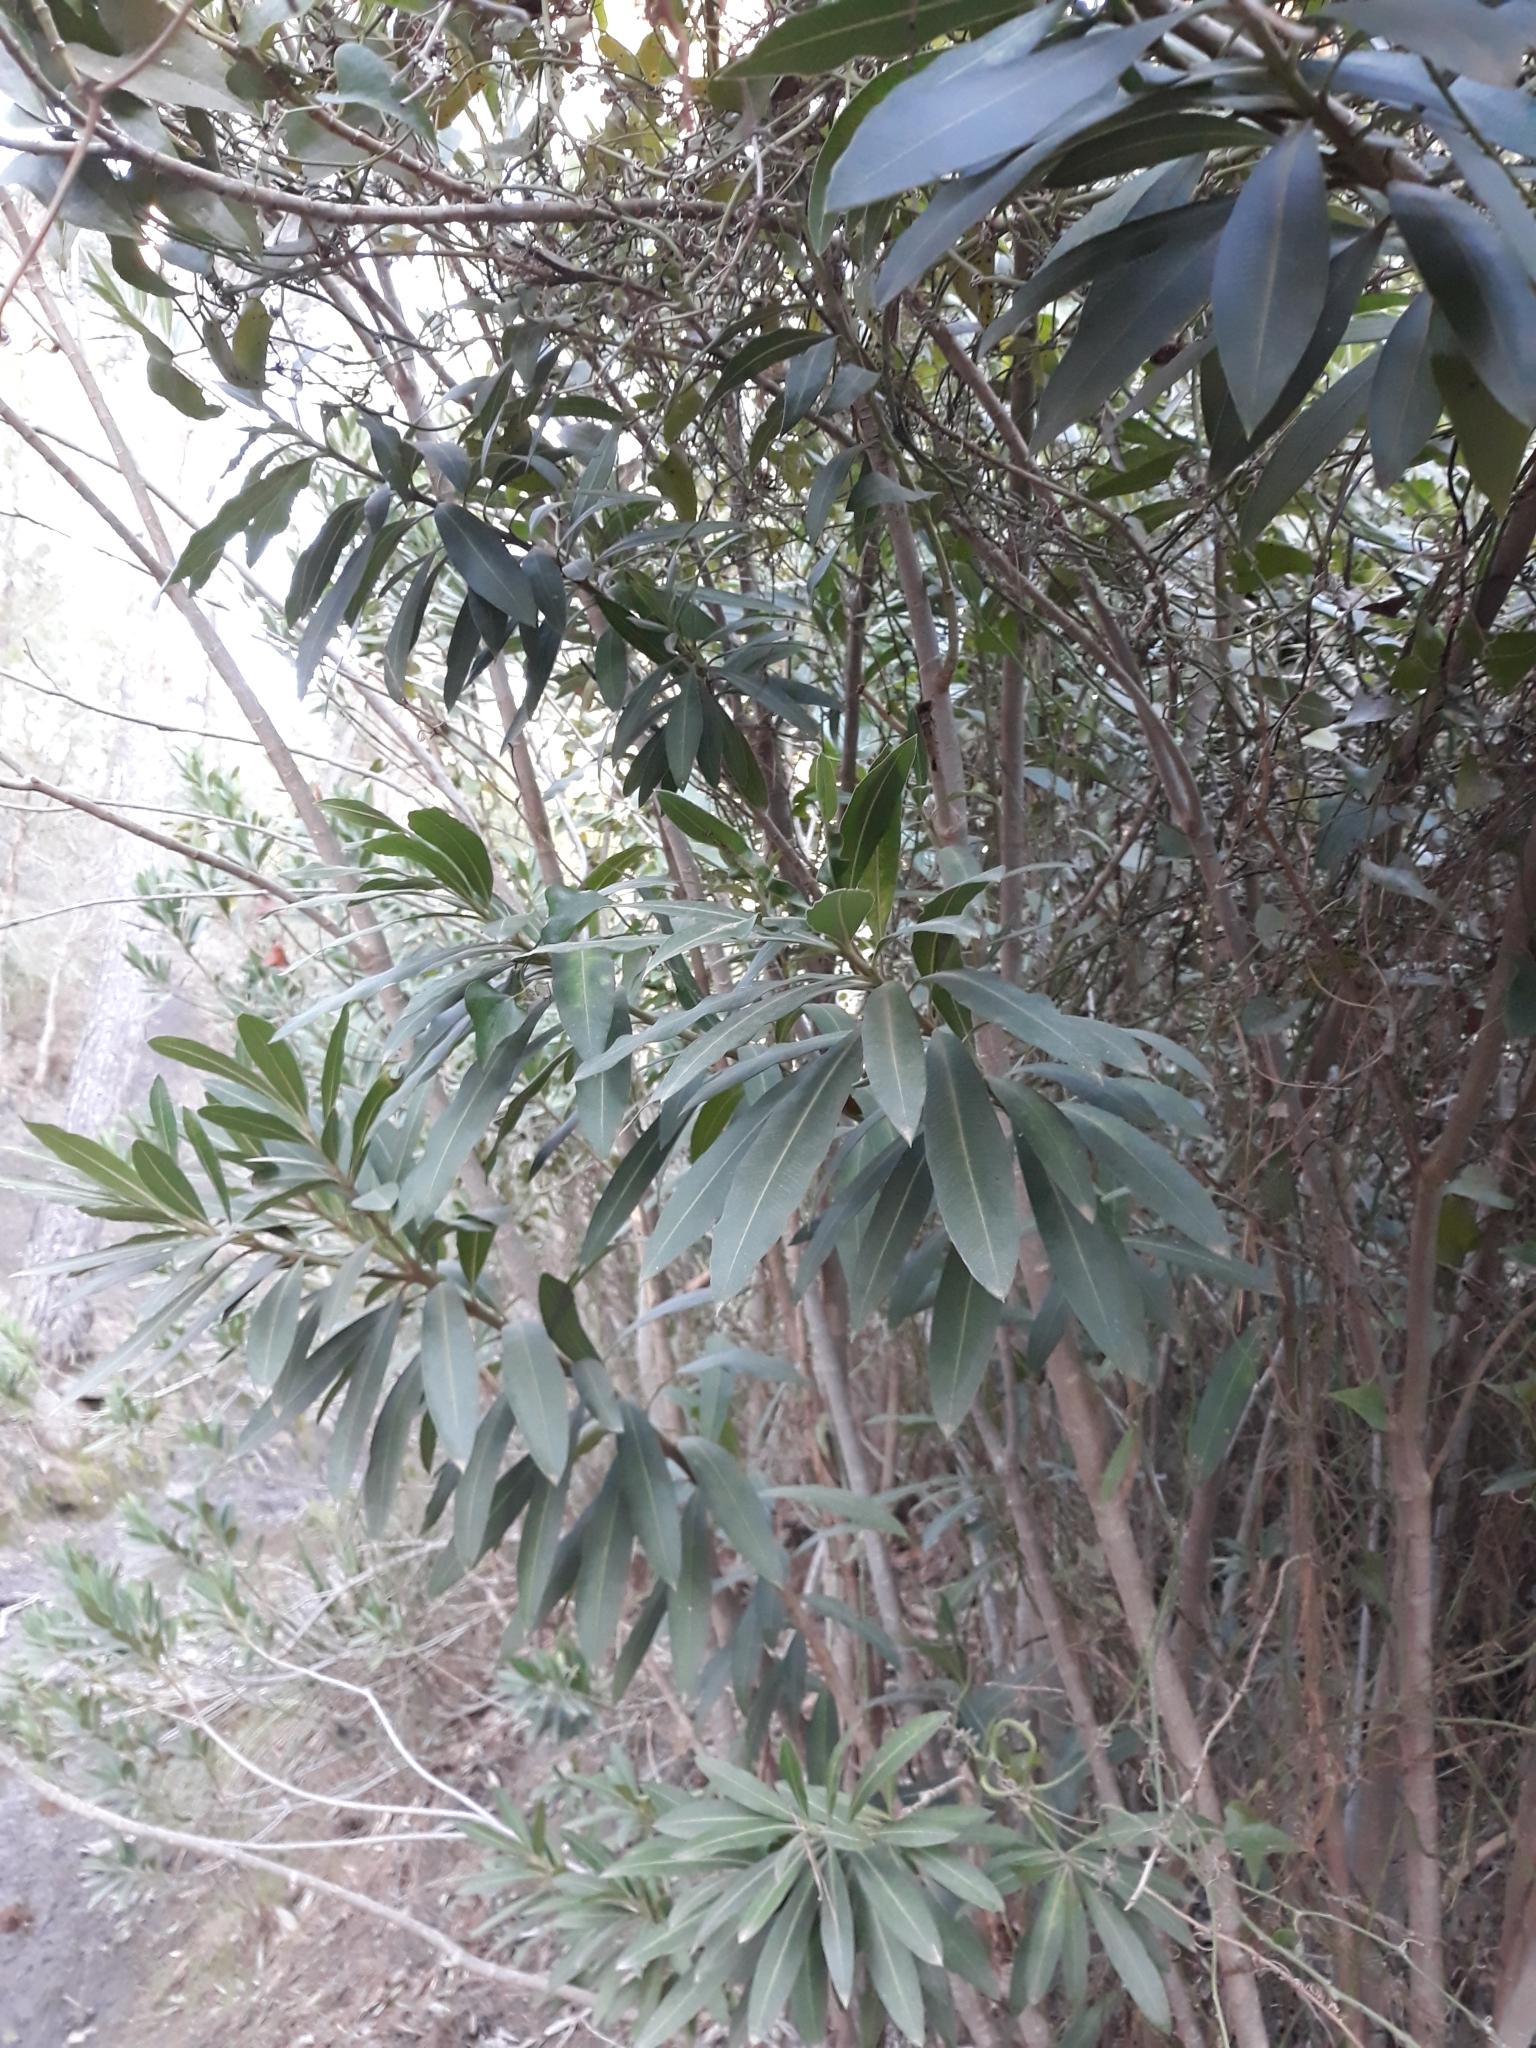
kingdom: Plantae
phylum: Tracheophyta
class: Magnoliopsida
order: Gentianales
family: Apocynaceae
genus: Nerium
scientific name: Nerium oleander
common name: Oleander
